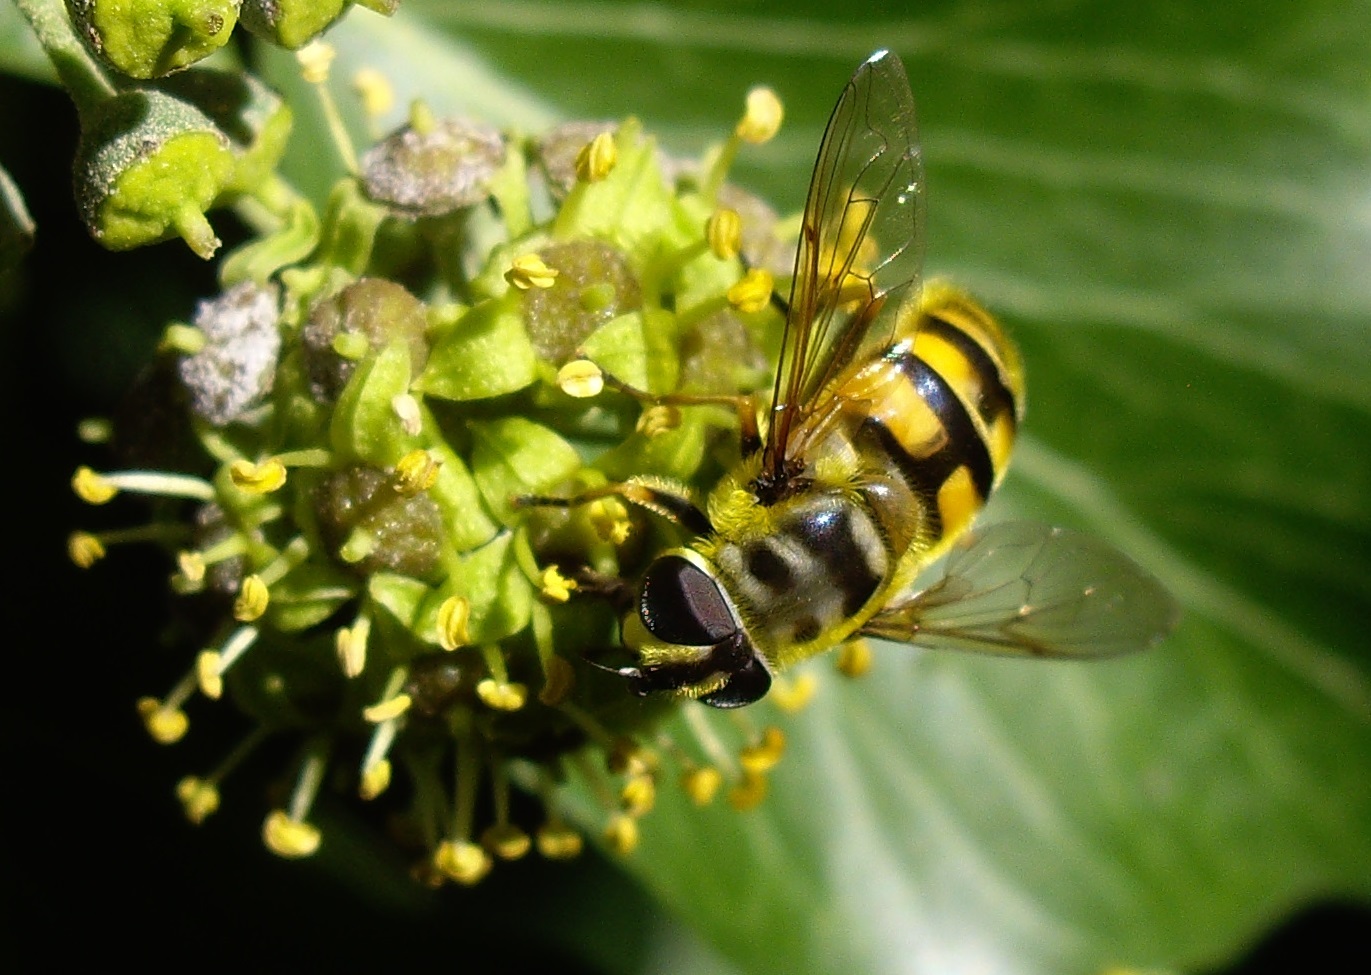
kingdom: Animalia
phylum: Arthropoda
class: Insecta
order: Diptera
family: Syrphidae
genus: Myathropa
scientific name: Myathropa florea
